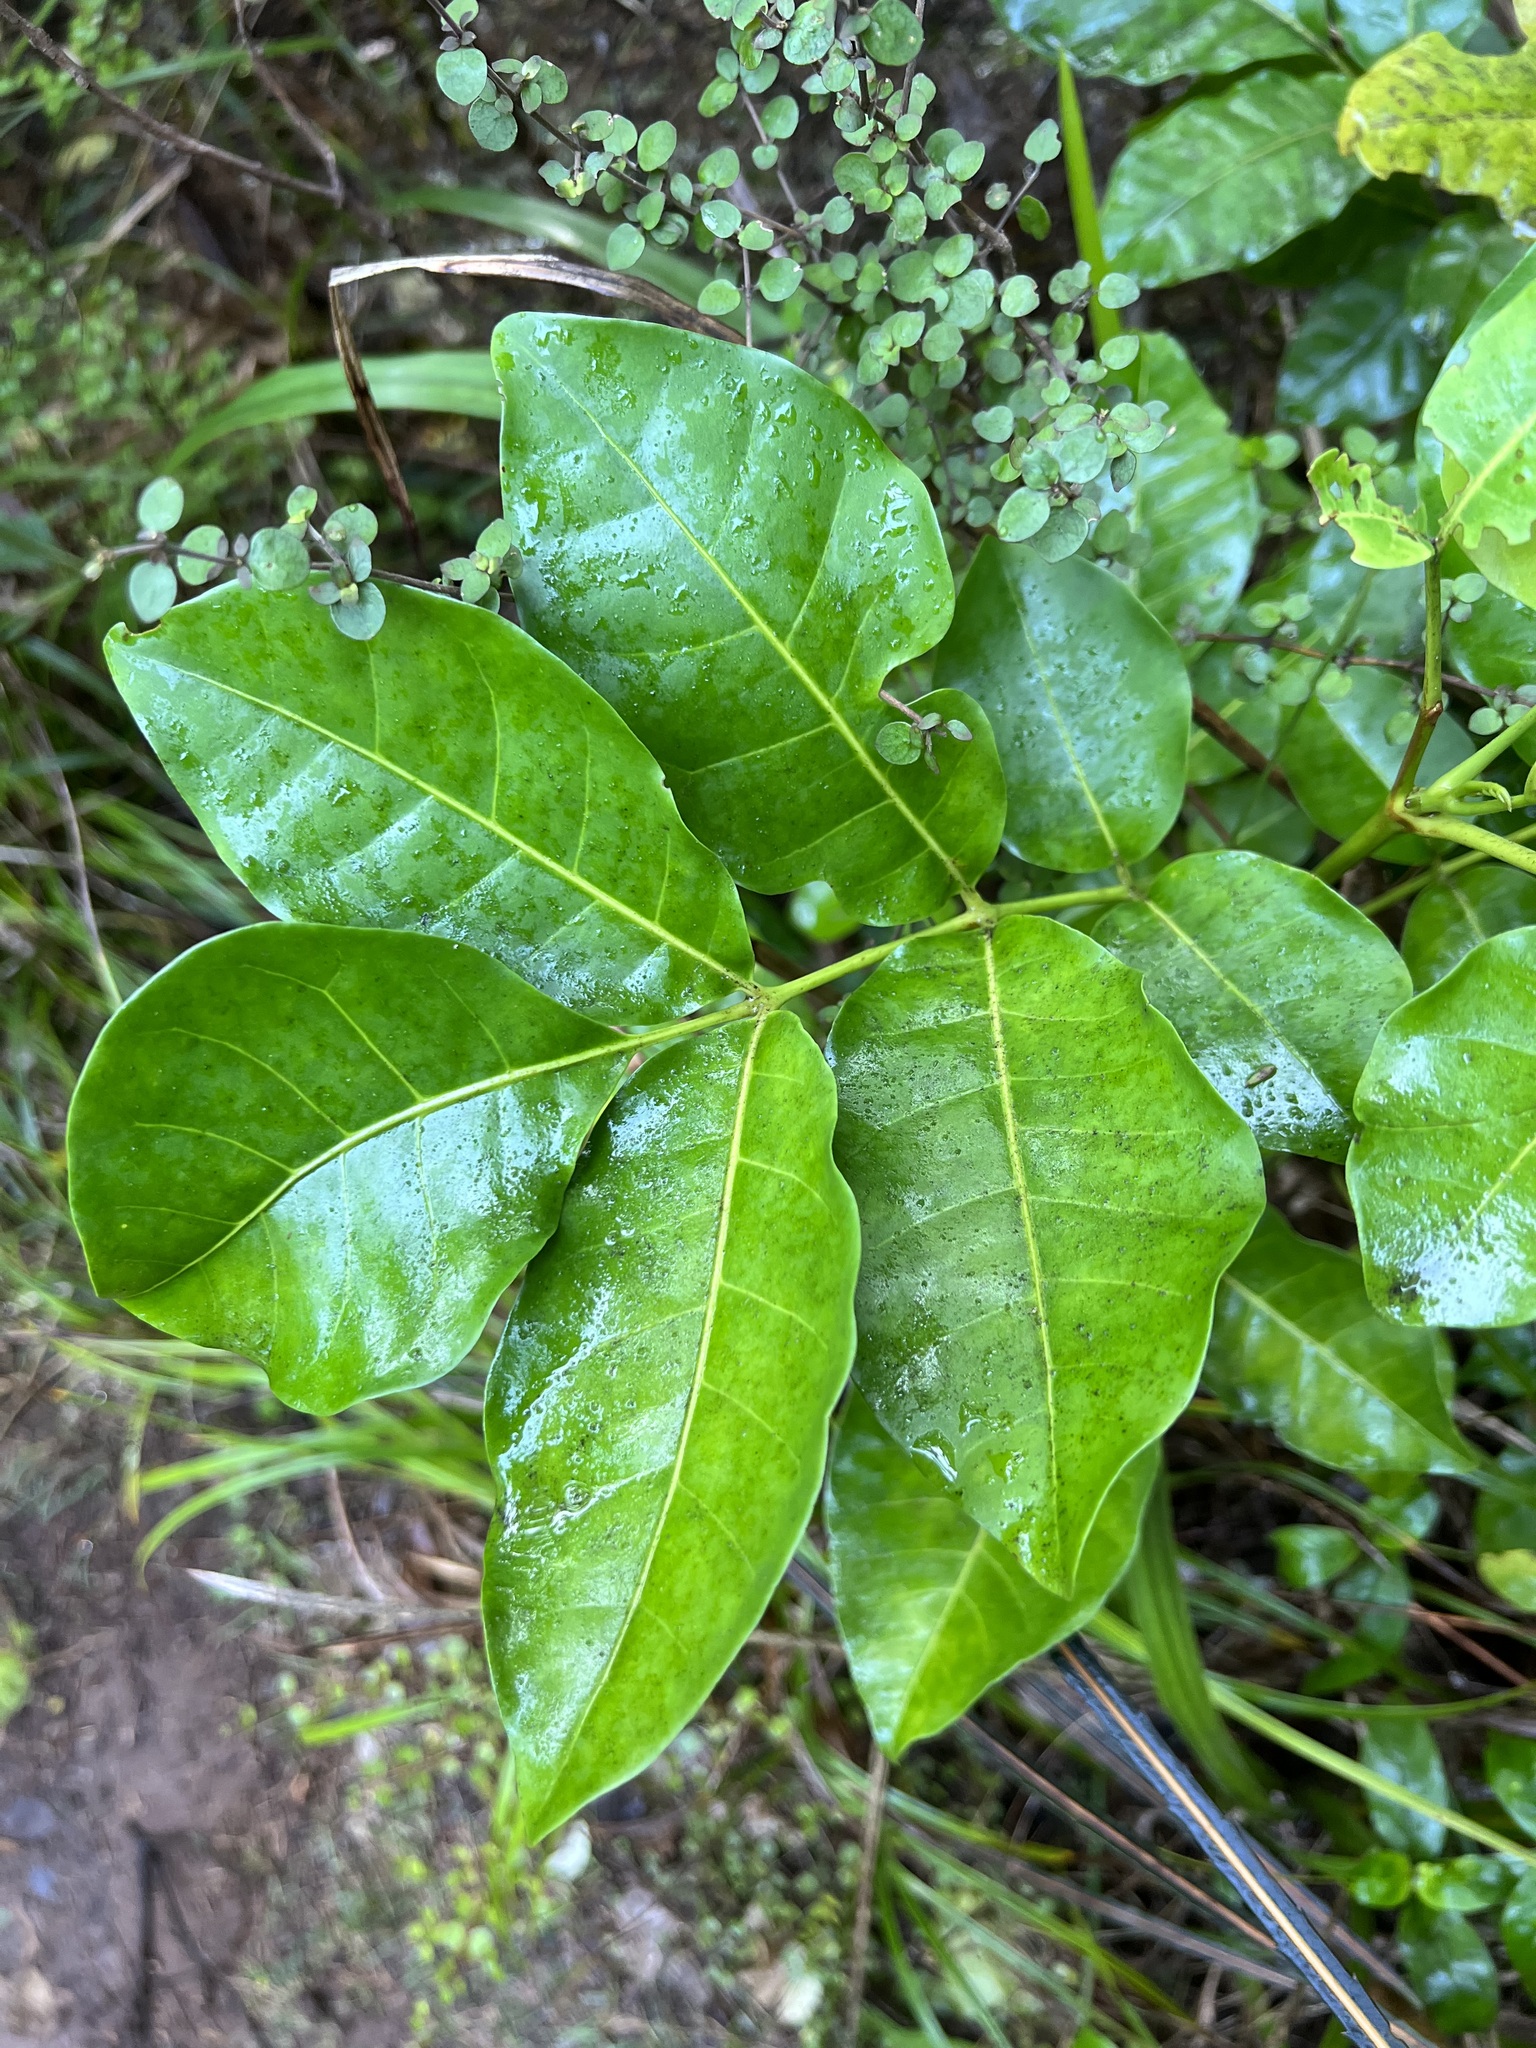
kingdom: Plantae
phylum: Tracheophyta
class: Magnoliopsida
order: Sapindales
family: Meliaceae
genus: Didymocheton
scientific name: Didymocheton spectabilis
